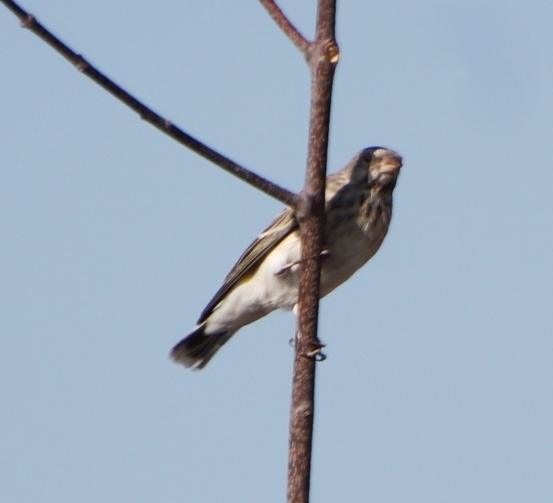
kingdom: Animalia
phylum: Chordata
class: Aves
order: Passeriformes
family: Fringillidae
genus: Crithagra
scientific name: Crithagra atrogularis
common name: Black-throated canary
